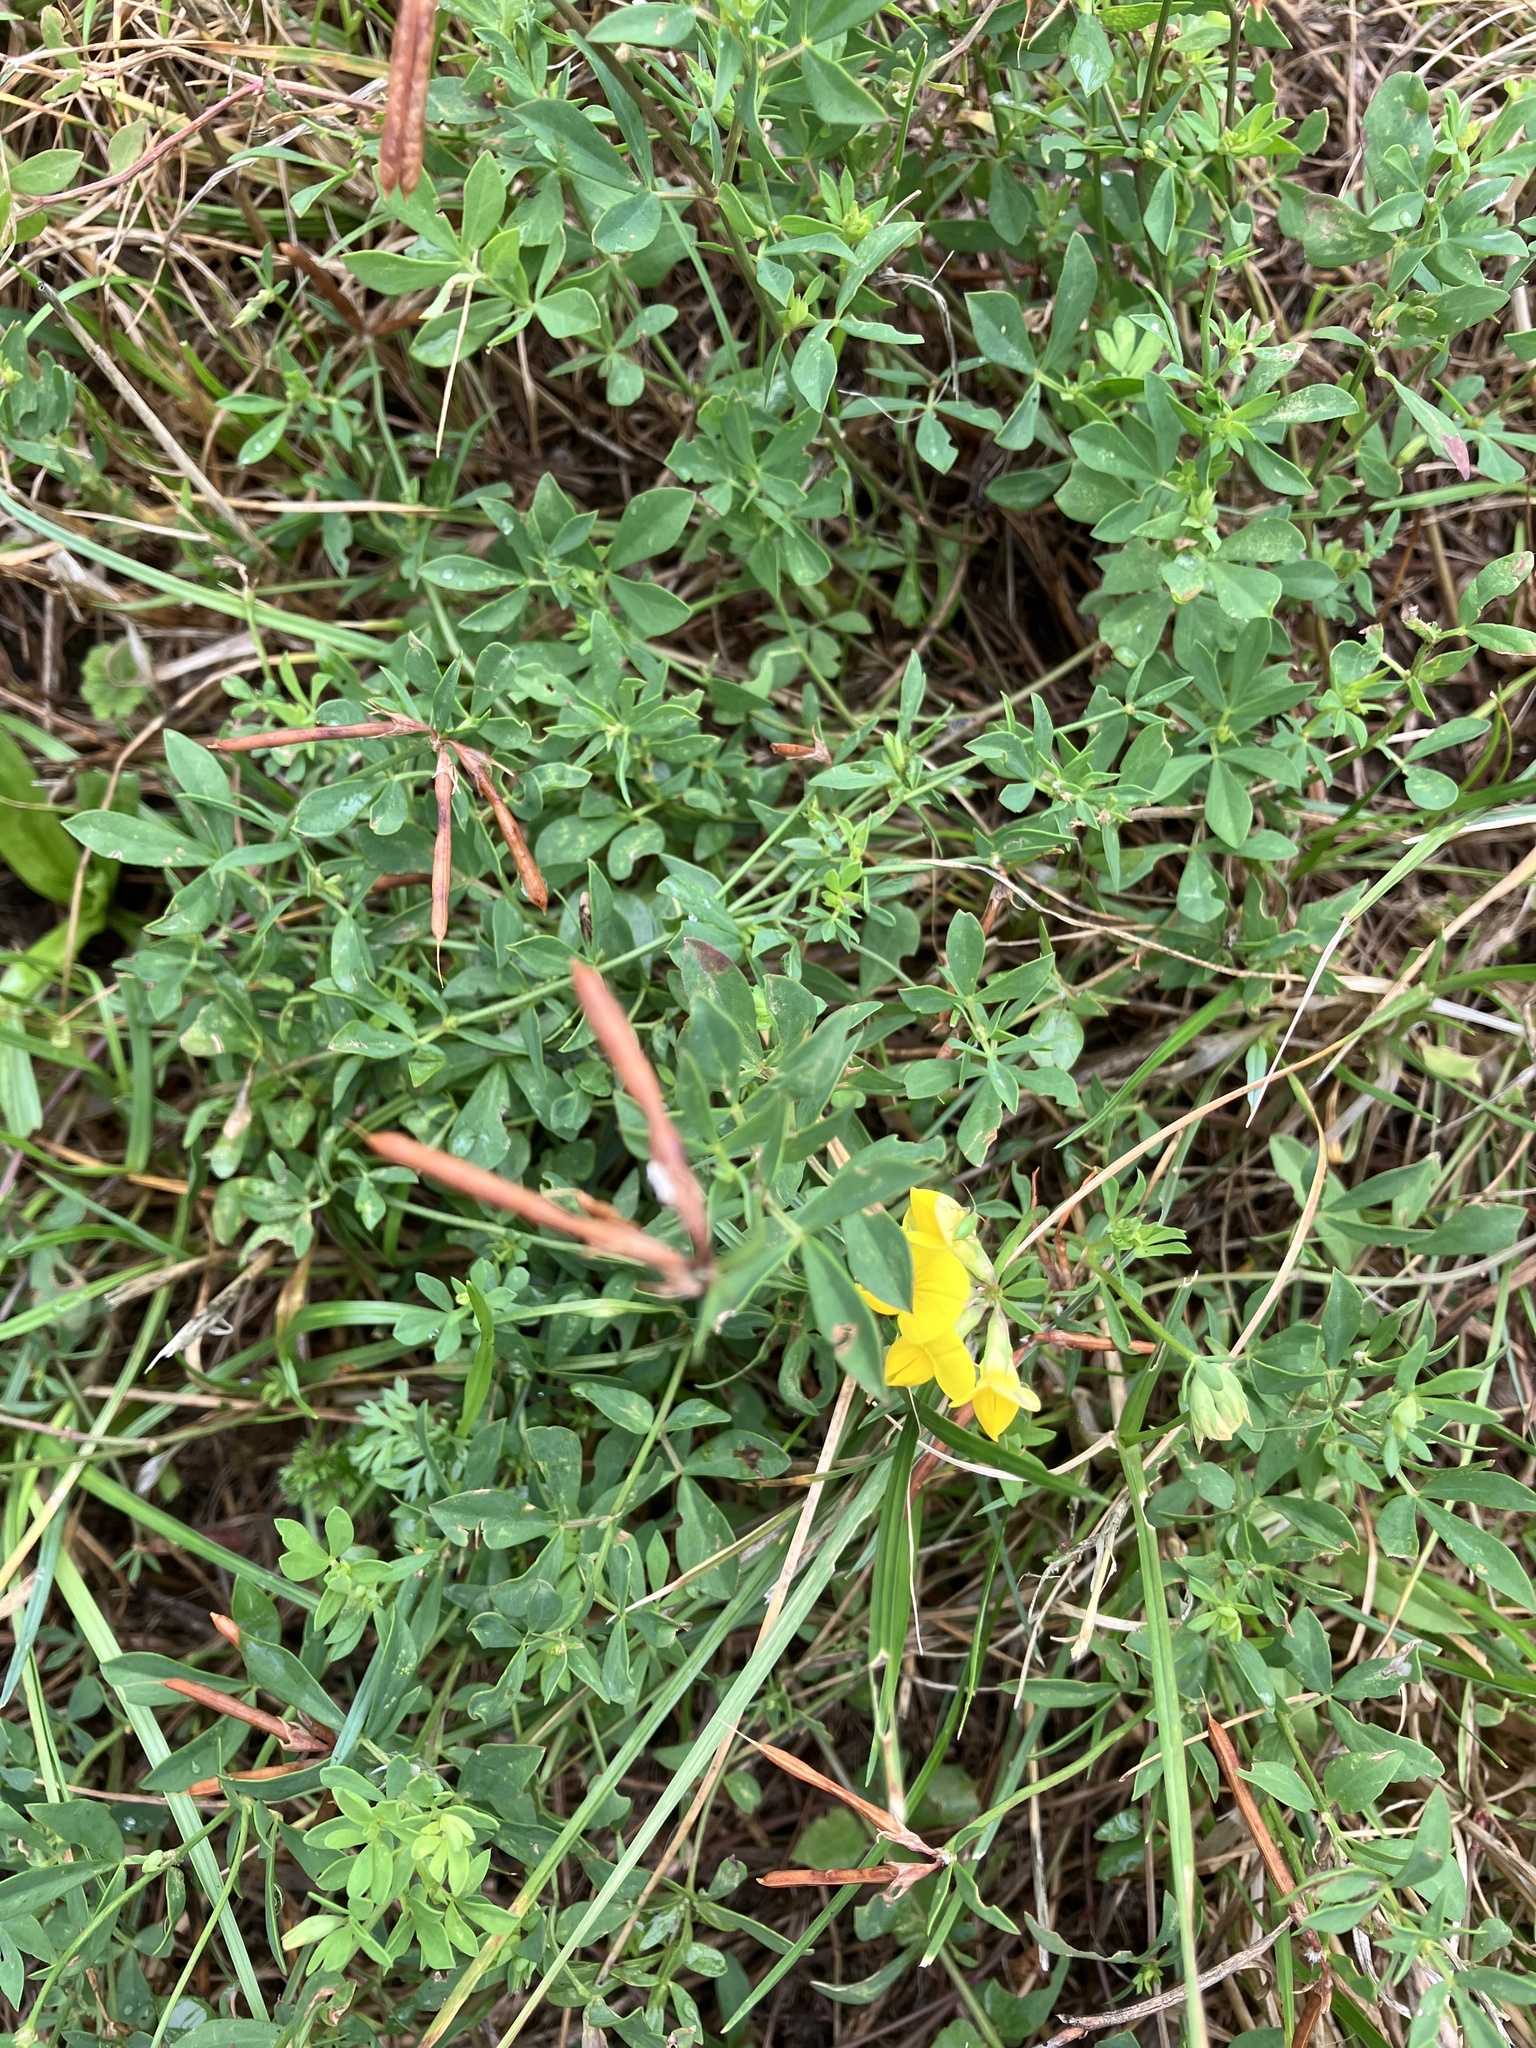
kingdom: Plantae
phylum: Tracheophyta
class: Magnoliopsida
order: Fabales
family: Fabaceae
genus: Lotus
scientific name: Lotus corniculatus
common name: Common bird's-foot-trefoil
